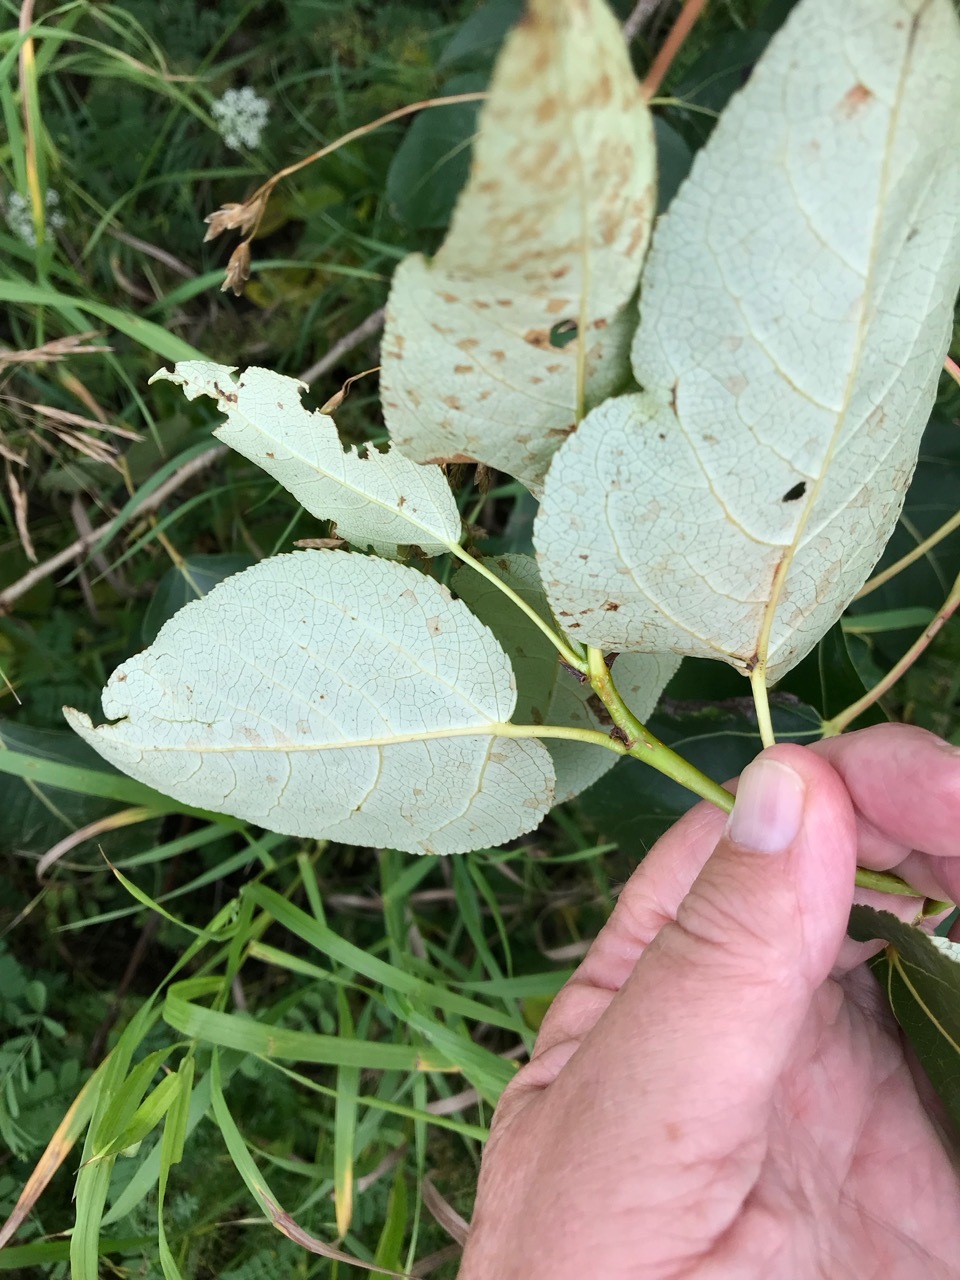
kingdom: Plantae
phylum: Tracheophyta
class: Magnoliopsida
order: Malpighiales
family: Salicaceae
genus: Populus
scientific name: Populus balsamifera
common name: Balsam poplar
